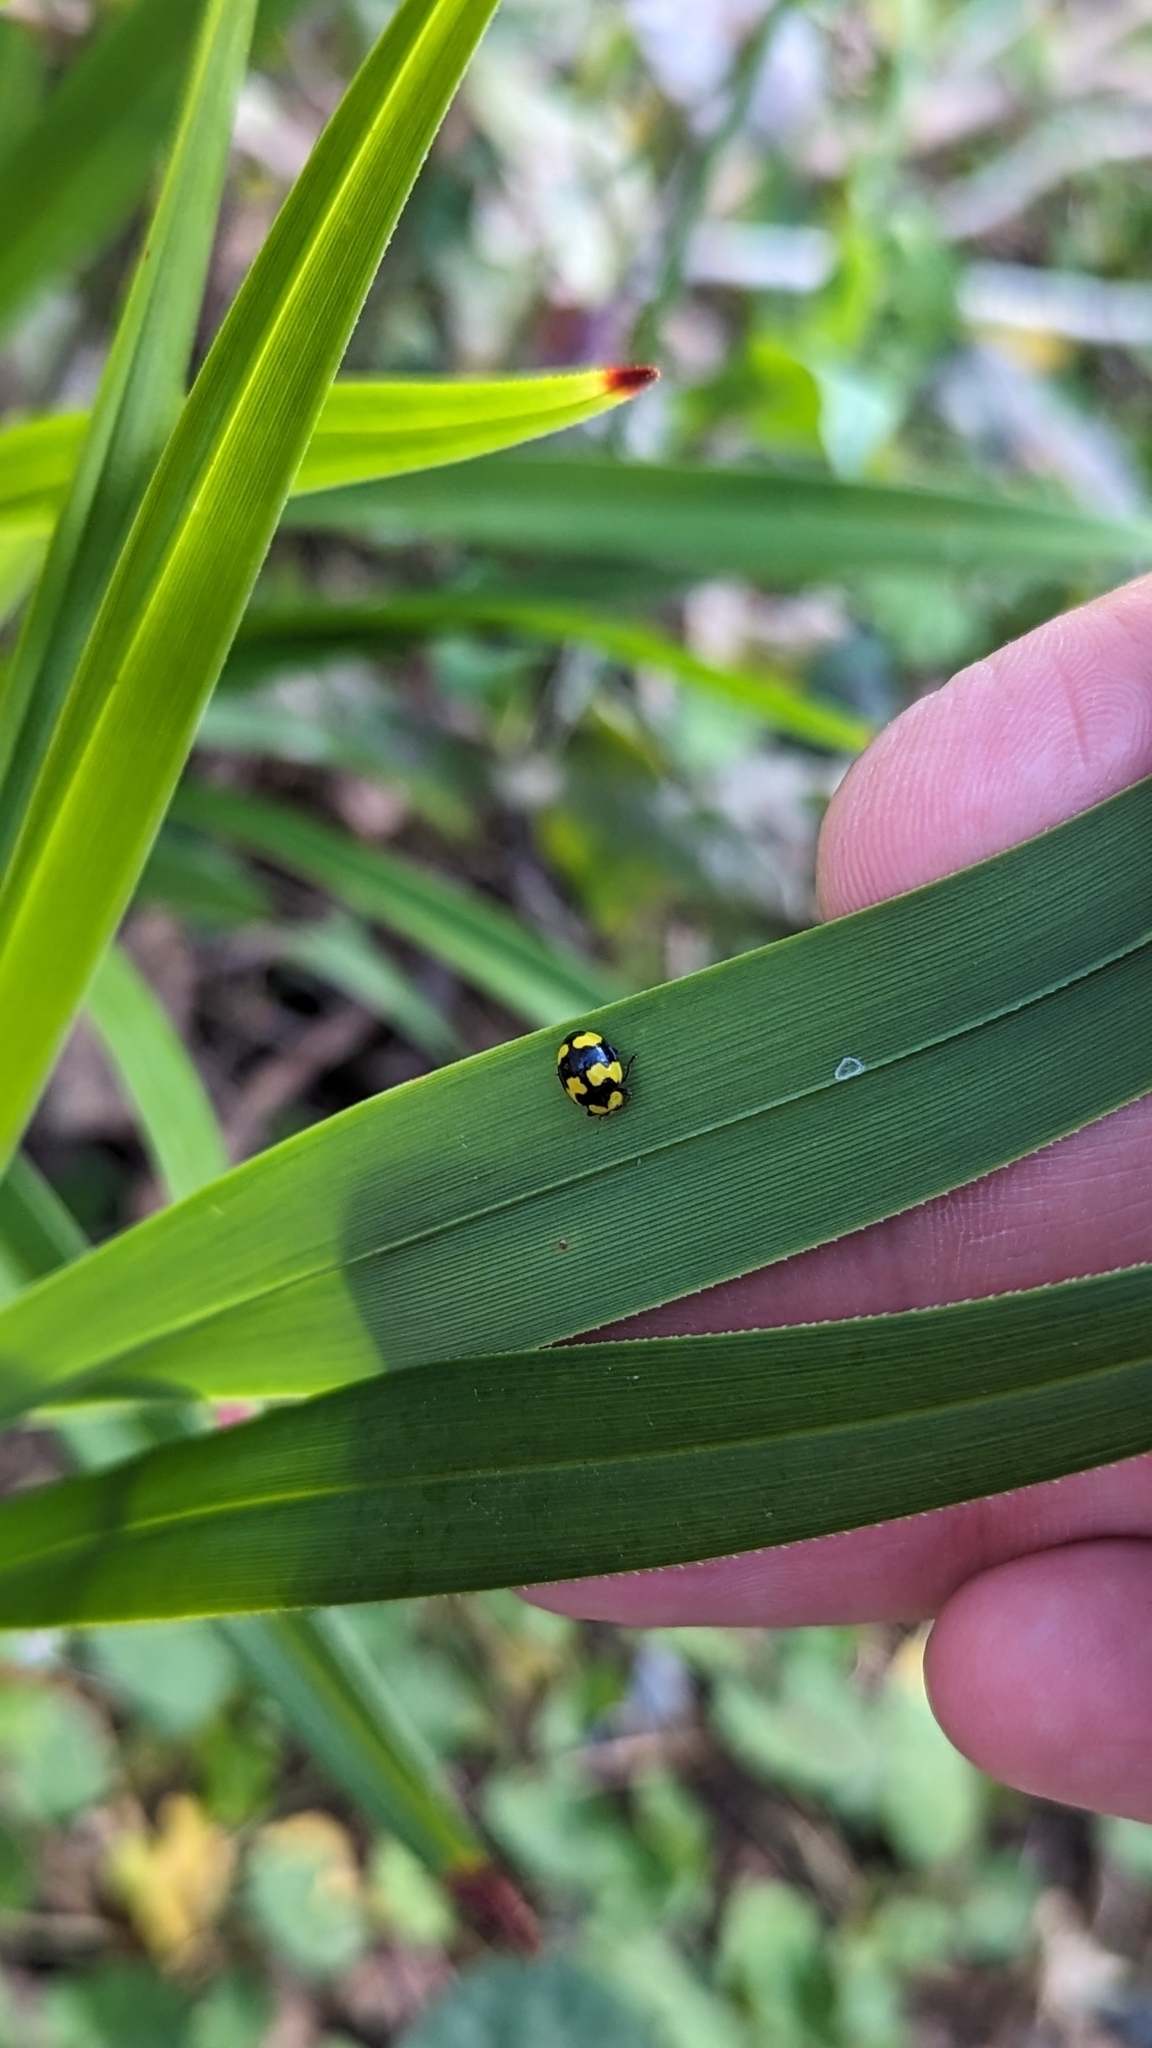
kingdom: Animalia
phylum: Arthropoda
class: Insecta
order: Coleoptera
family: Coccinellidae
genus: Illeis
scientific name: Illeis galbula
